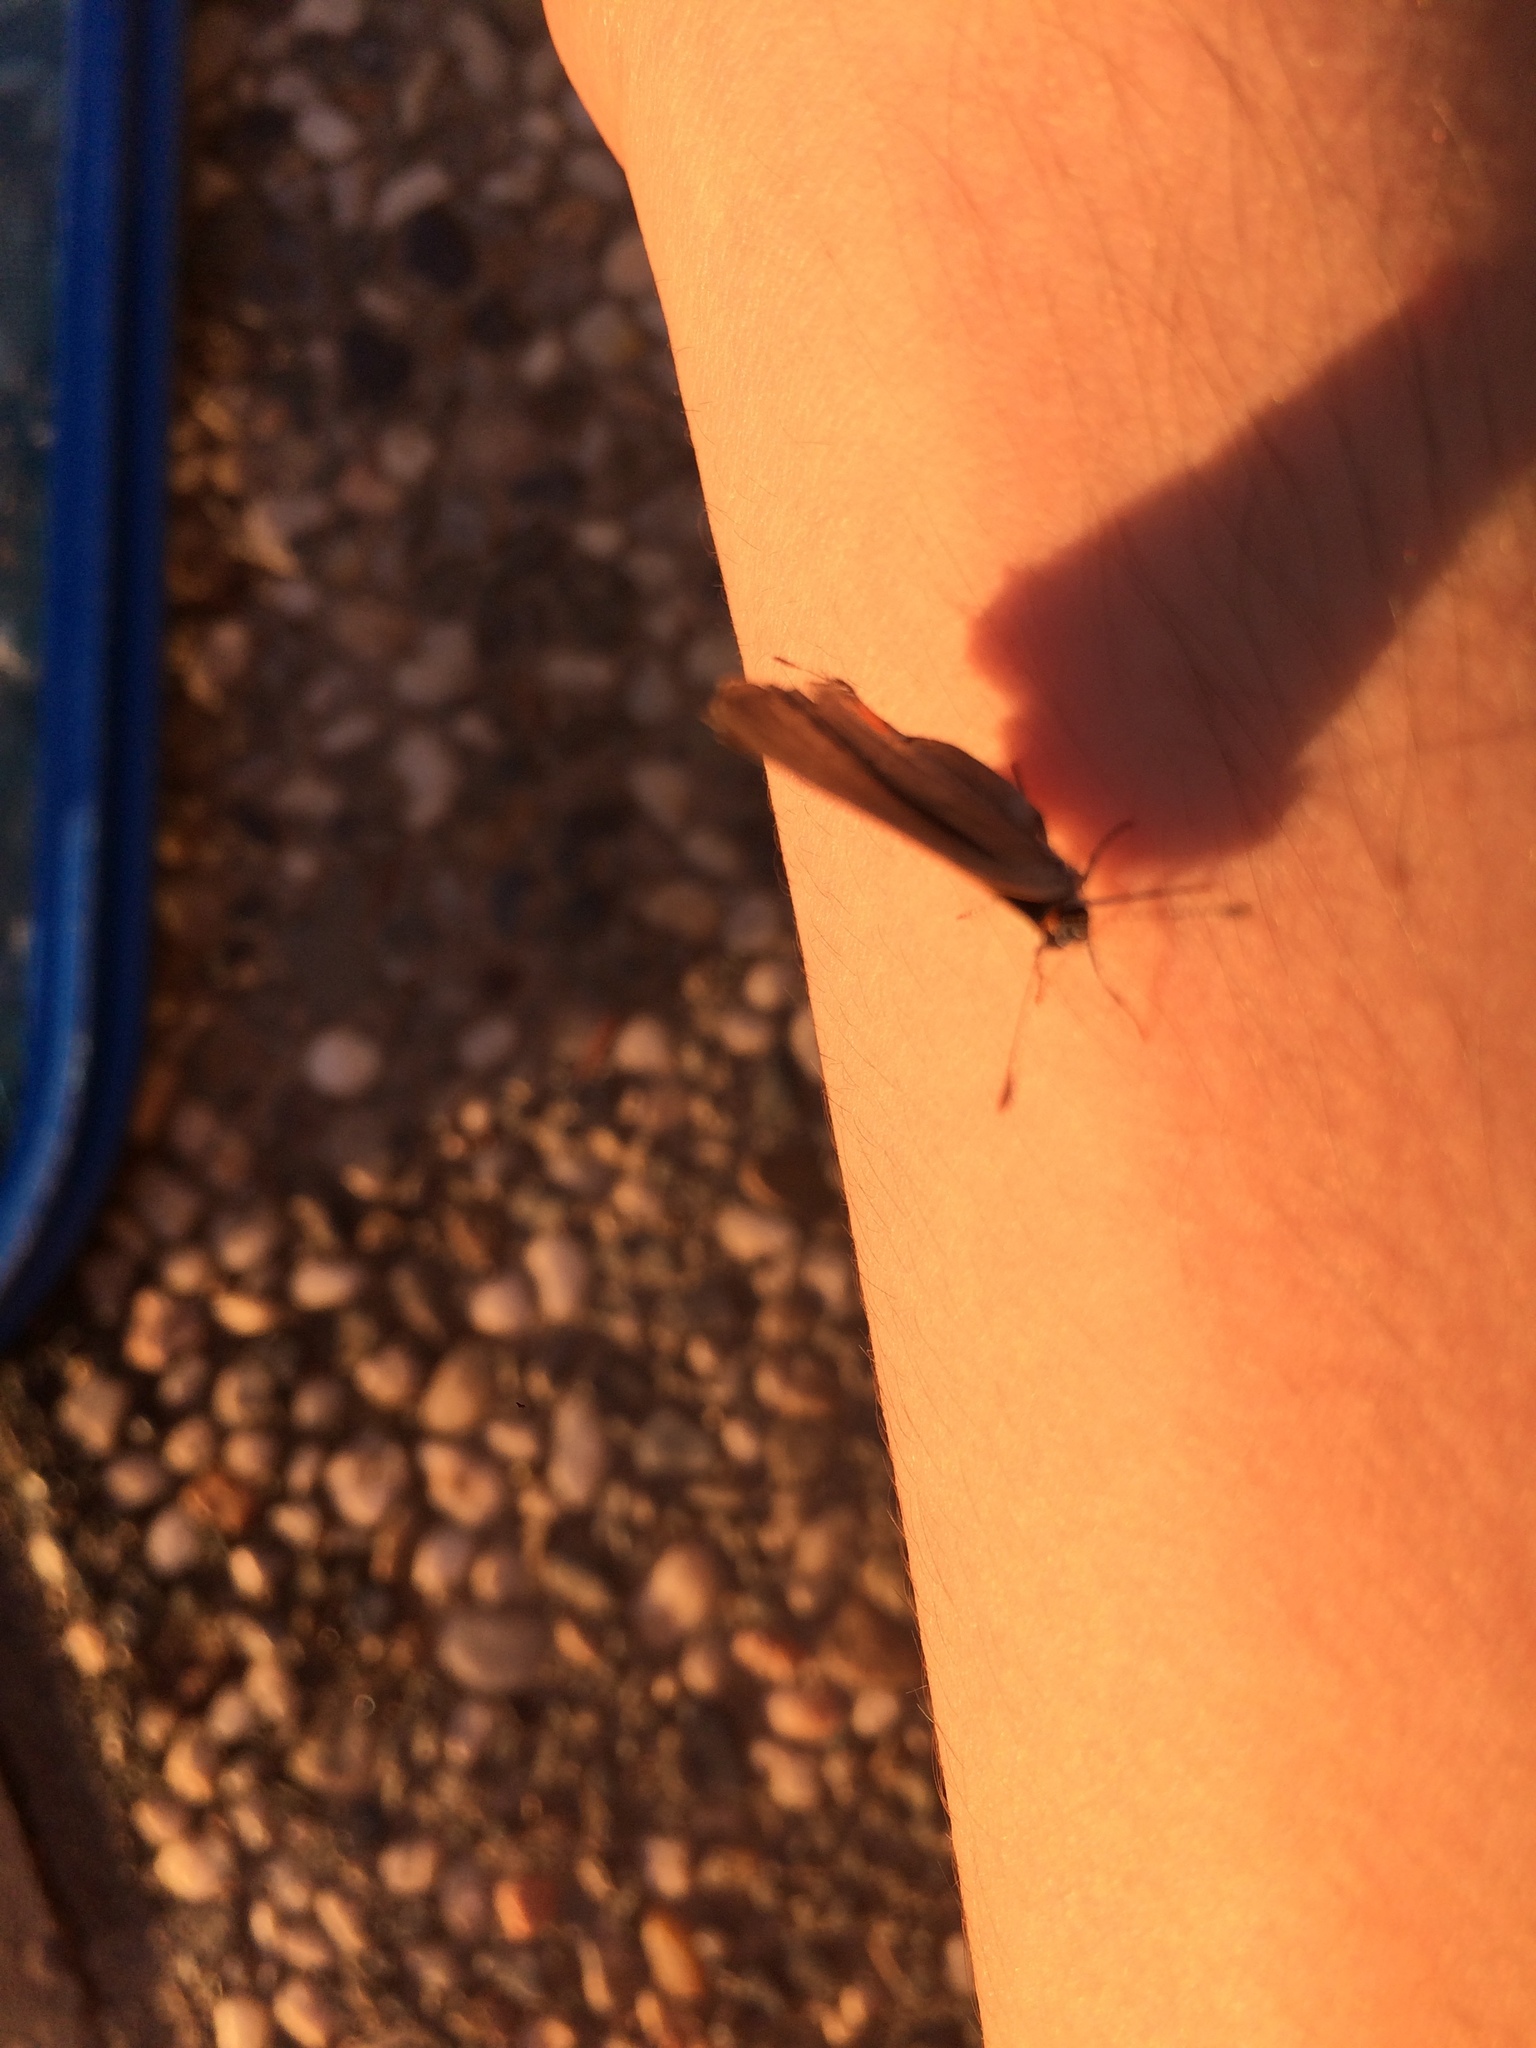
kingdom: Animalia
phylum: Arthropoda
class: Insecta
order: Lepidoptera
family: Lycaenidae
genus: Strymon
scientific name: Strymon melinus
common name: Gray hairstreak
